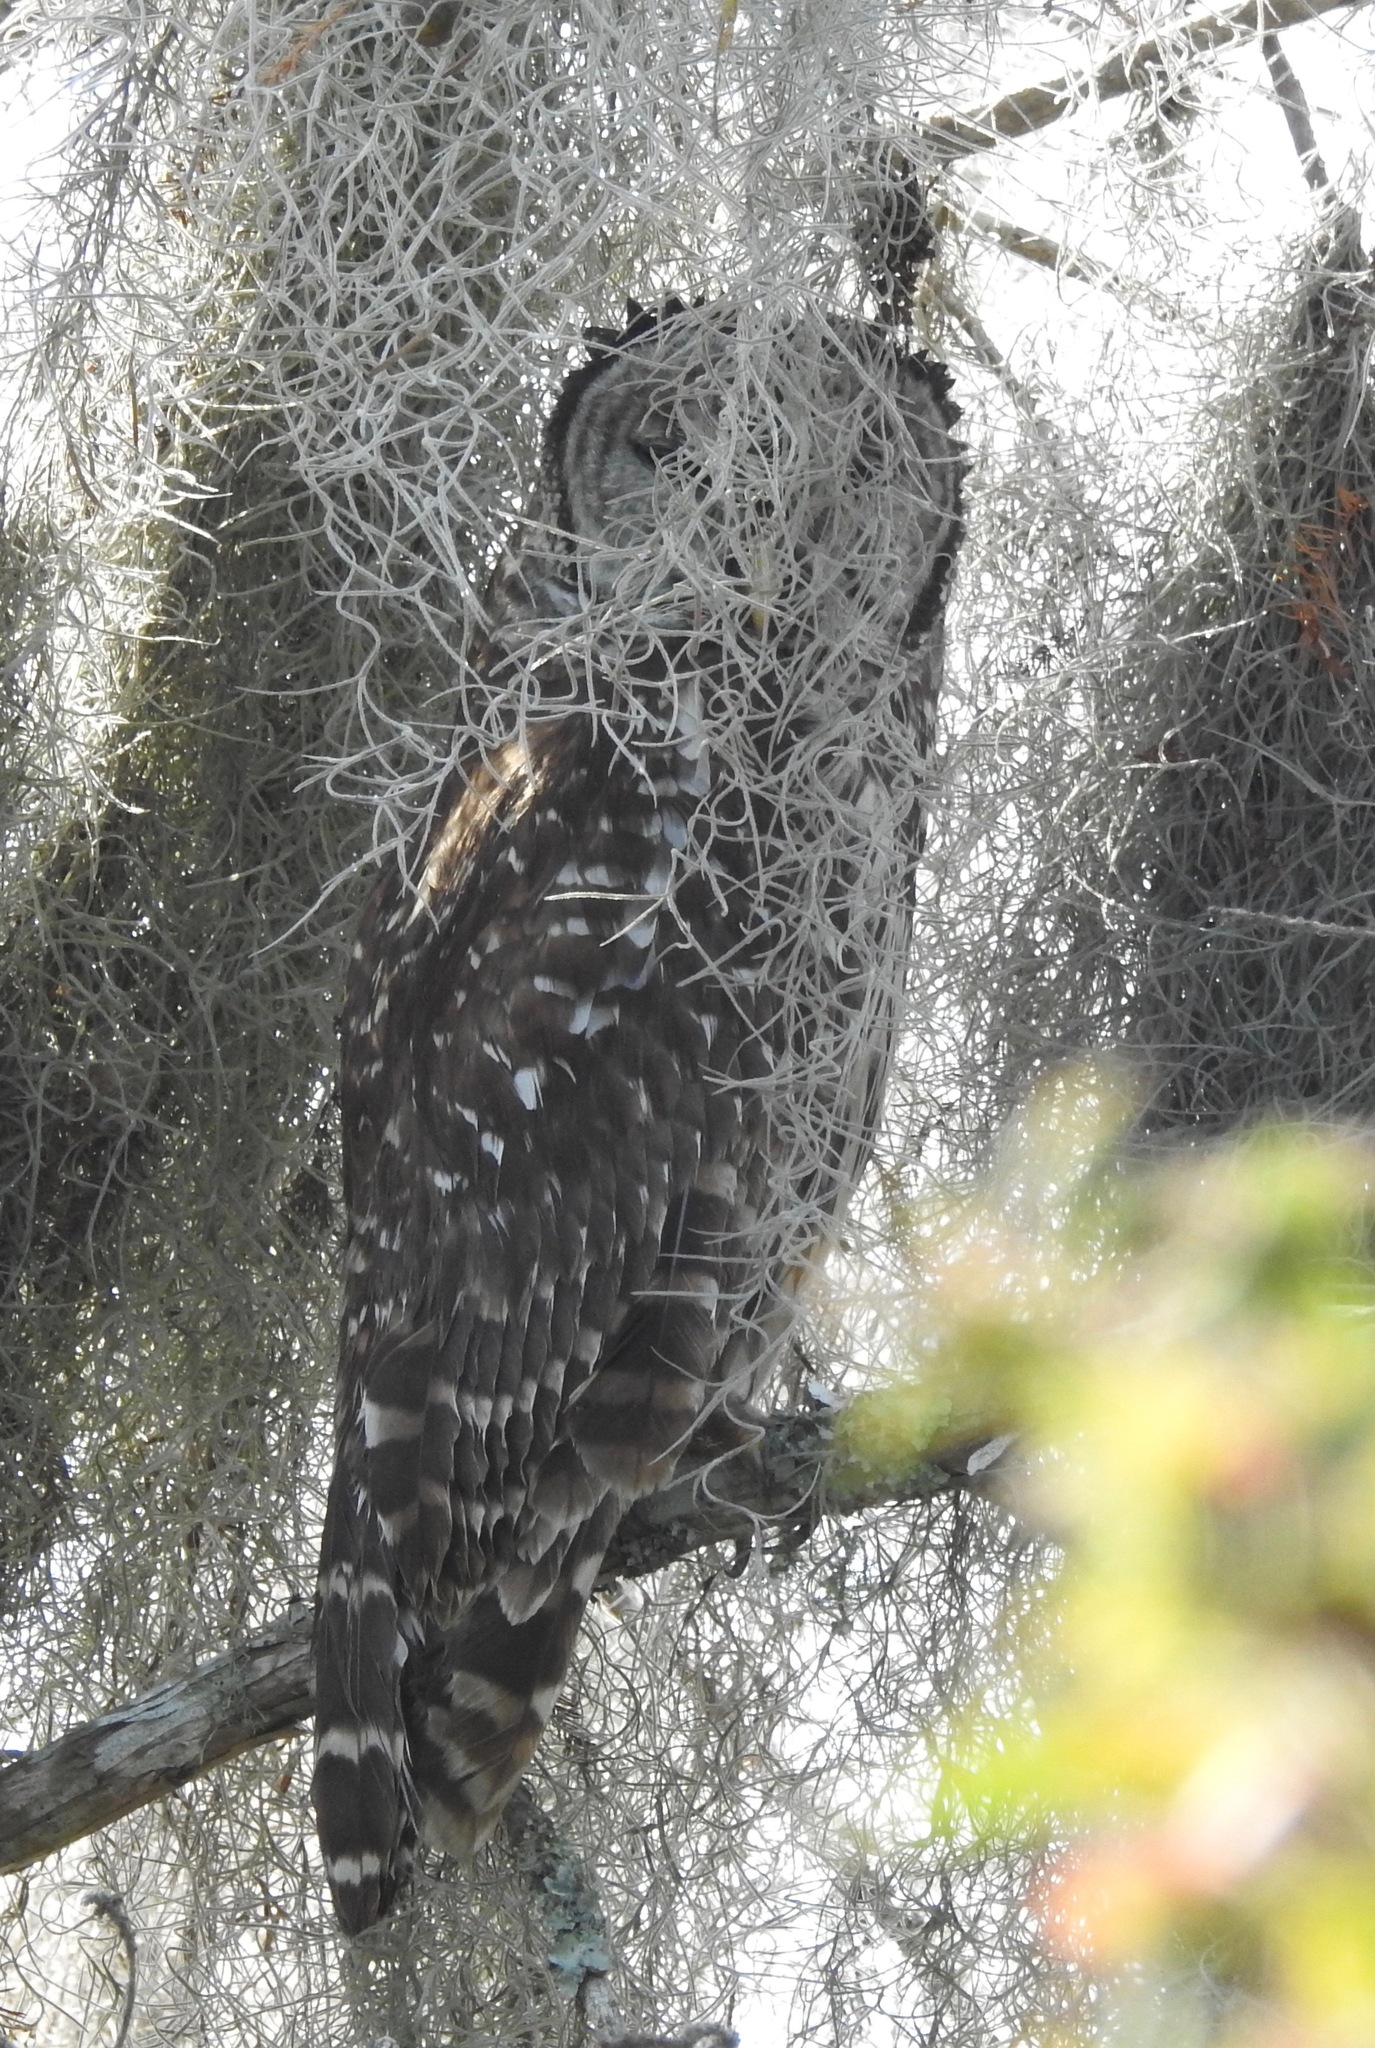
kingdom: Animalia
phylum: Chordata
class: Aves
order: Strigiformes
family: Strigidae
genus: Strix
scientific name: Strix varia
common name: Barred owl
